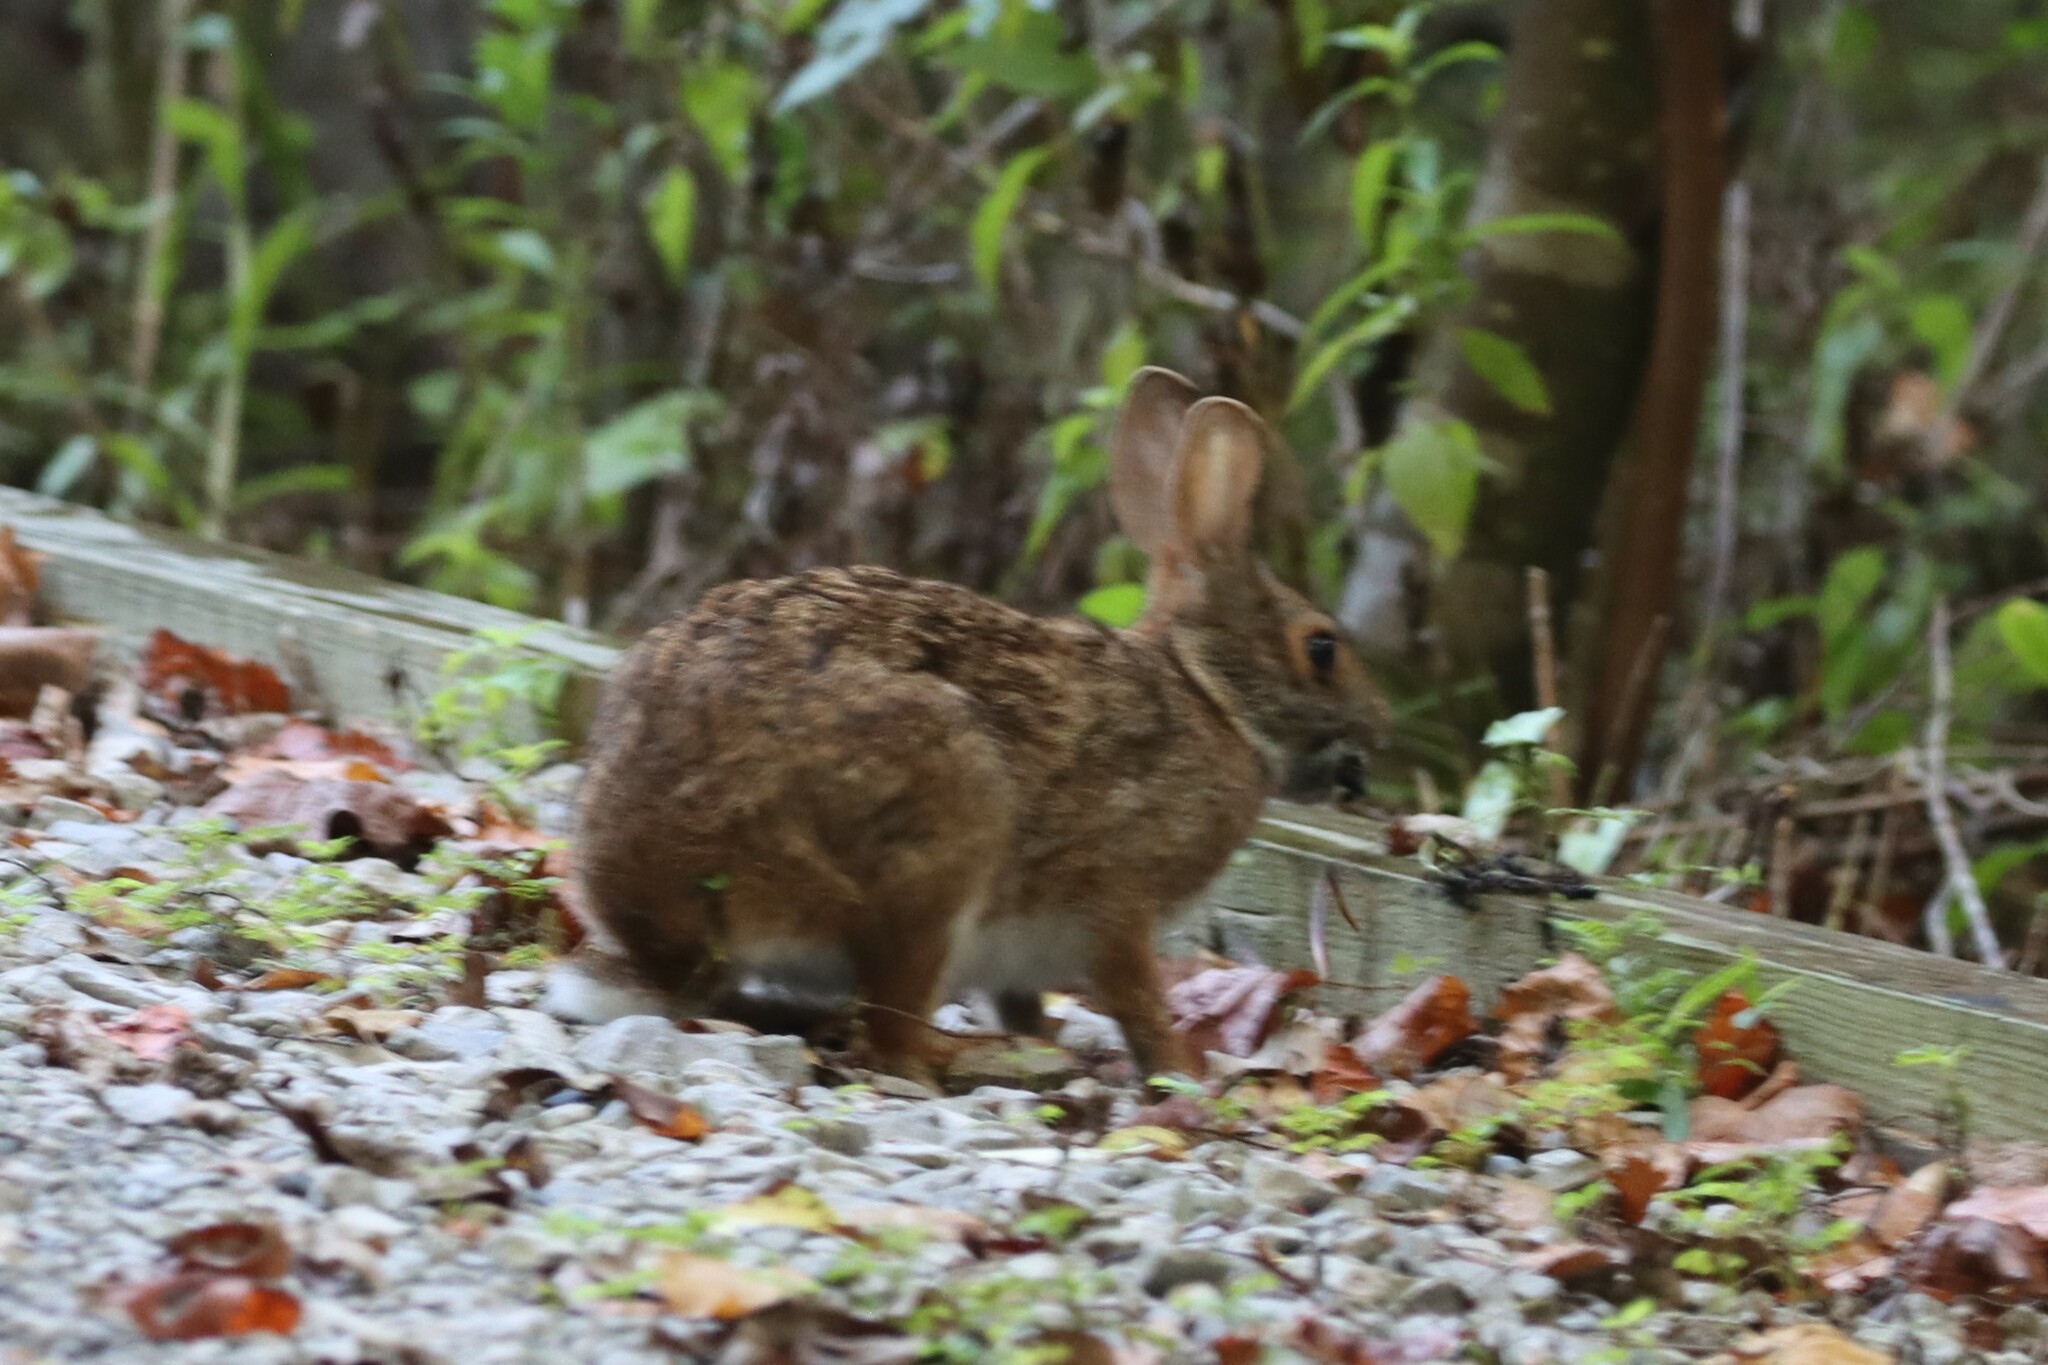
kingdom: Animalia
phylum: Chordata
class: Mammalia
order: Lagomorpha
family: Leporidae
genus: Sylvilagus
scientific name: Sylvilagus aquaticus
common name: Swamp rabbit
